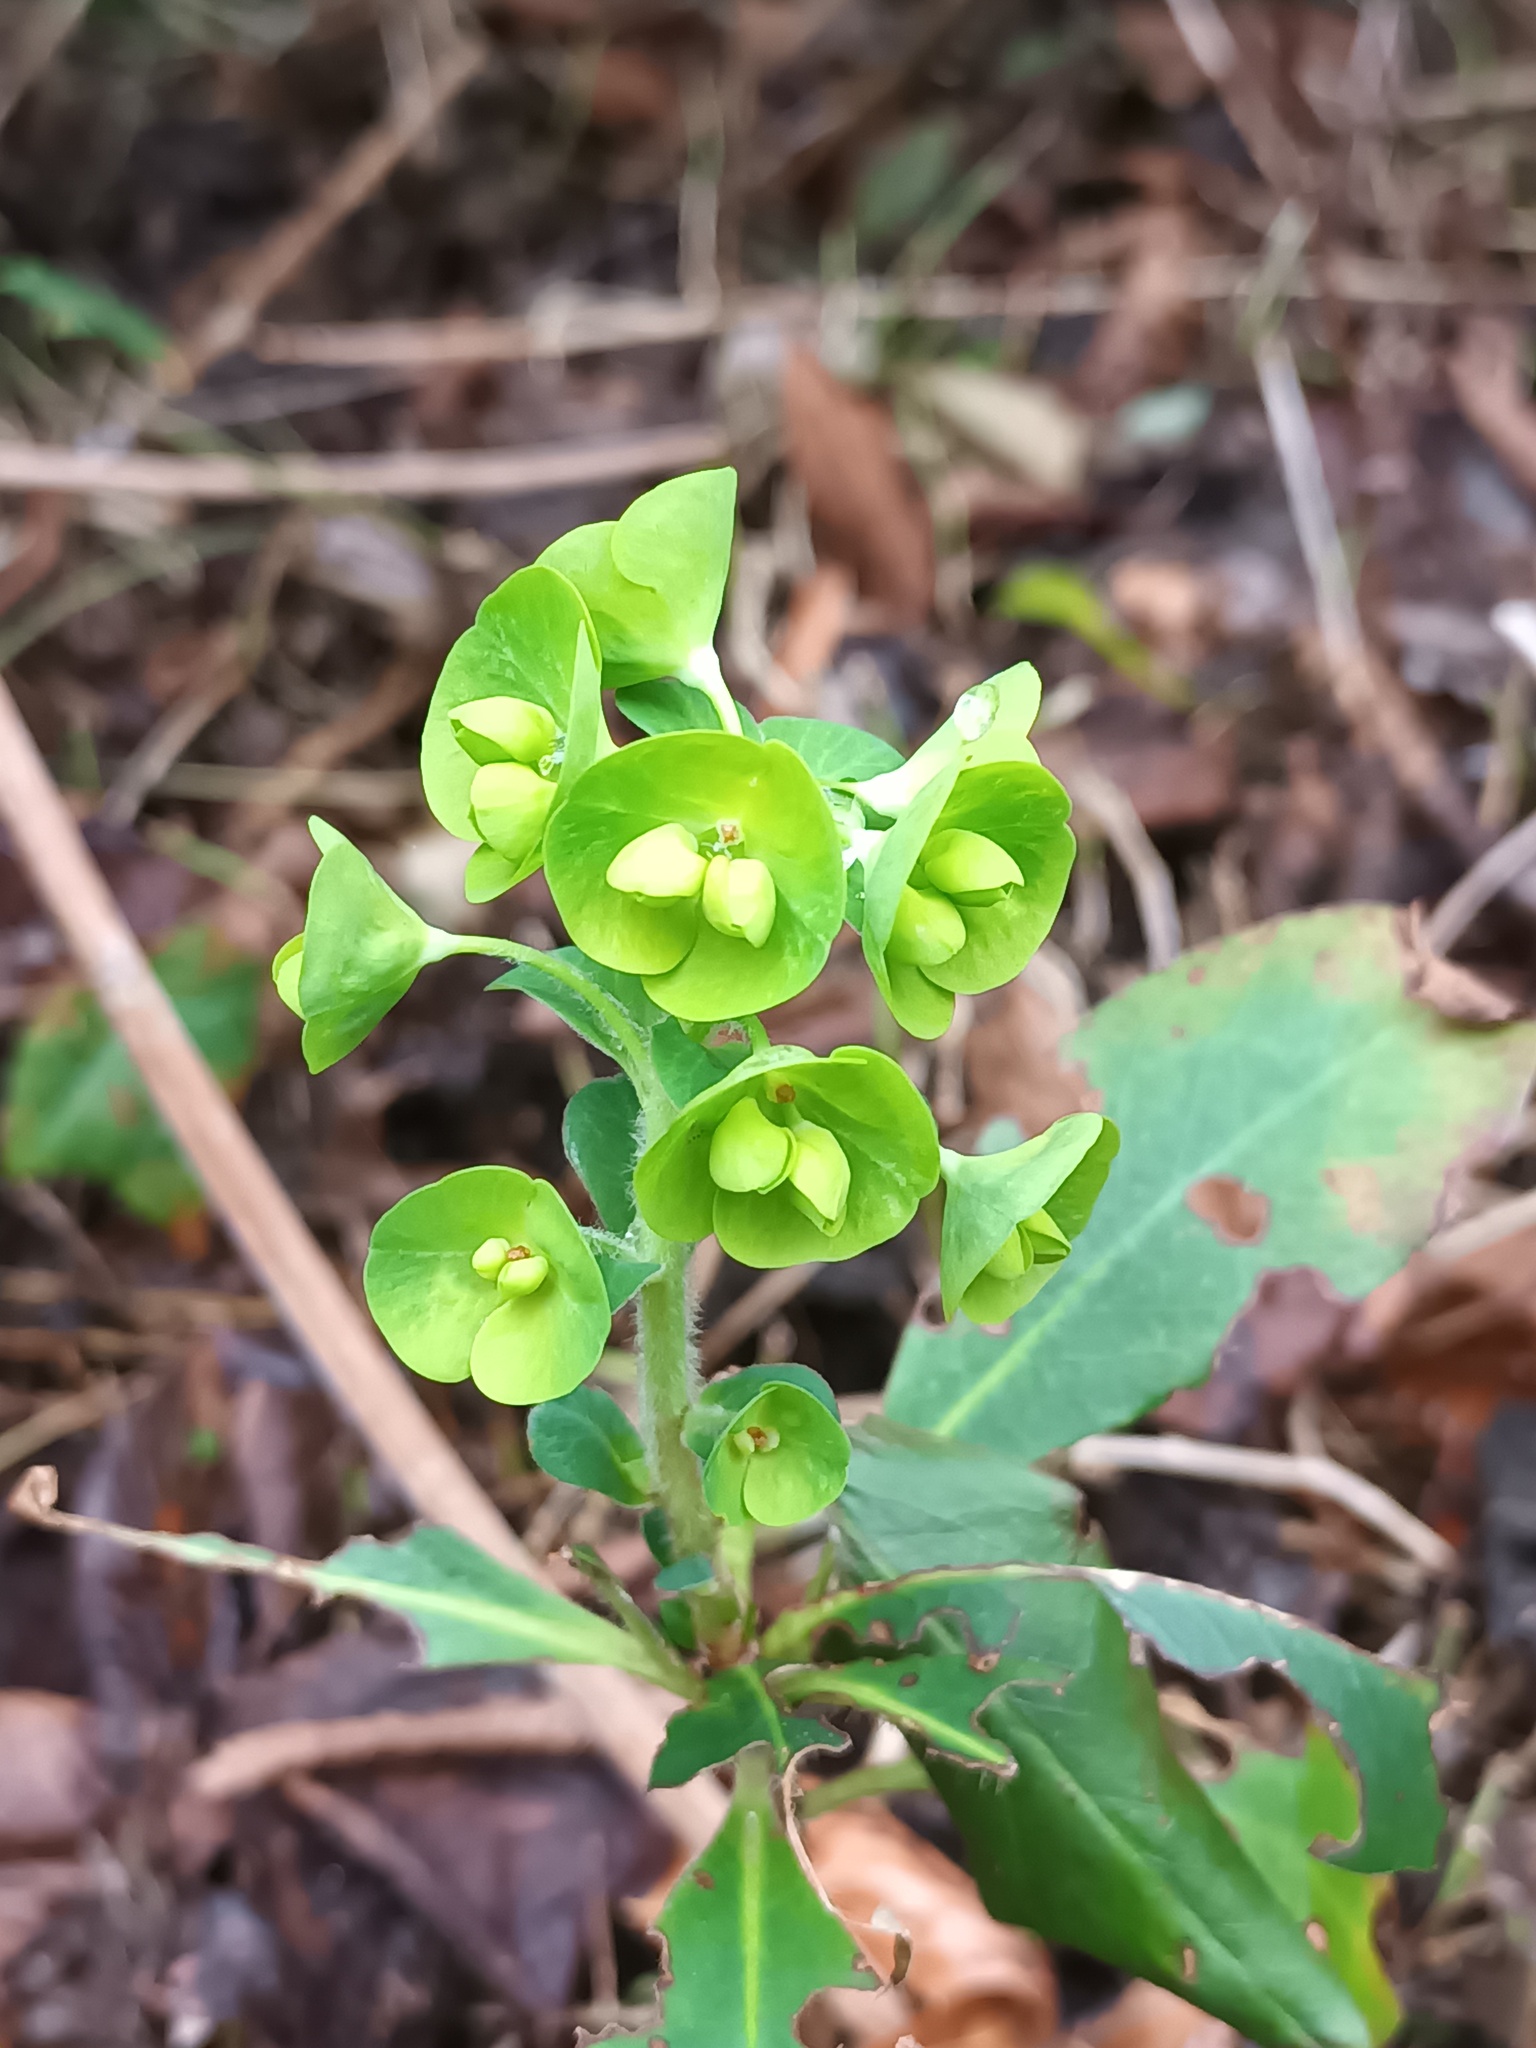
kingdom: Plantae
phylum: Tracheophyta
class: Magnoliopsida
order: Malpighiales
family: Euphorbiaceae
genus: Euphorbia
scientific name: Euphorbia amygdaloides
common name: Wood spurge
